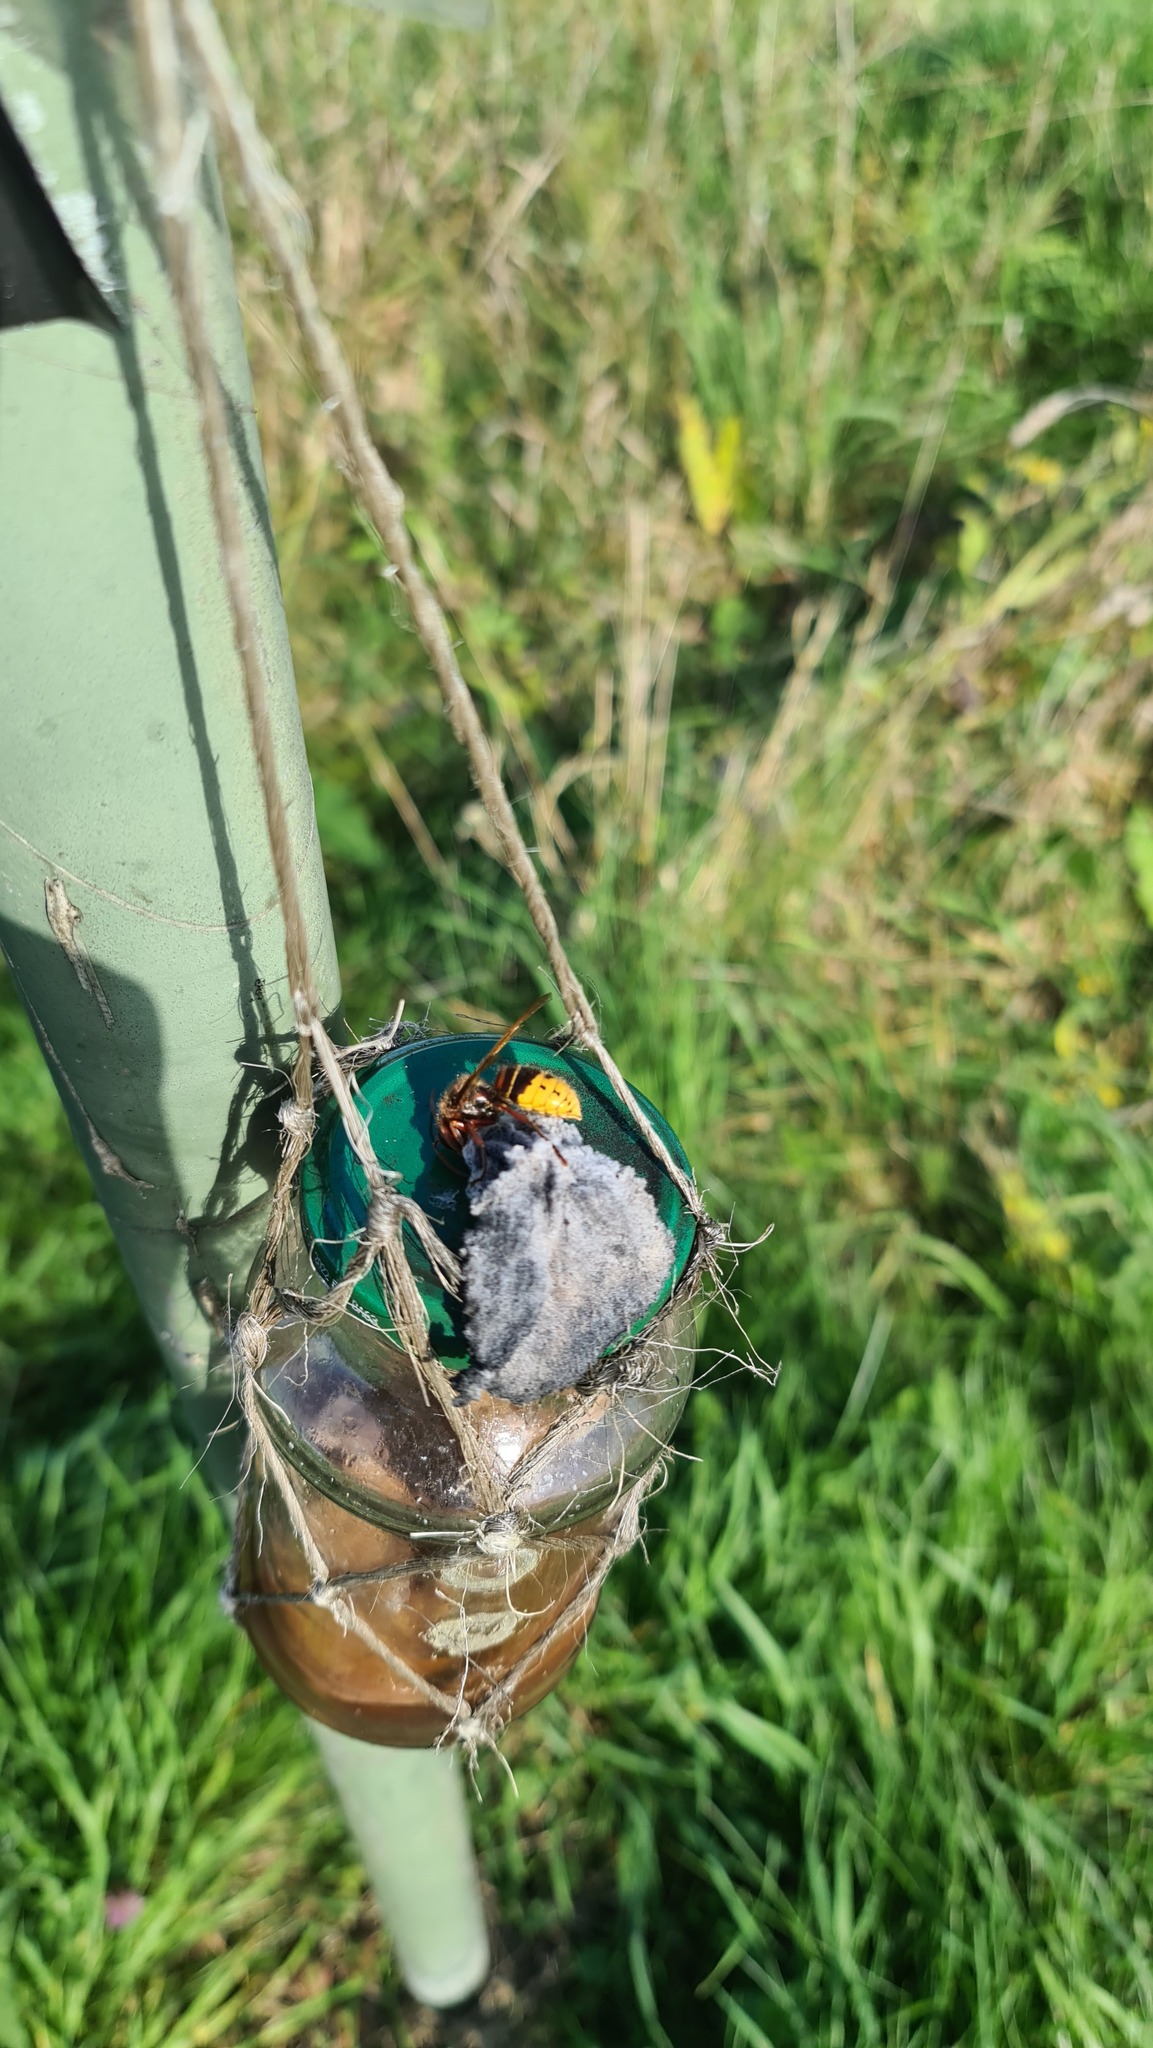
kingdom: Animalia
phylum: Arthropoda
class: Insecta
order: Hymenoptera
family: Vespidae
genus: Vespa
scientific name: Vespa crabro
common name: Hornet
